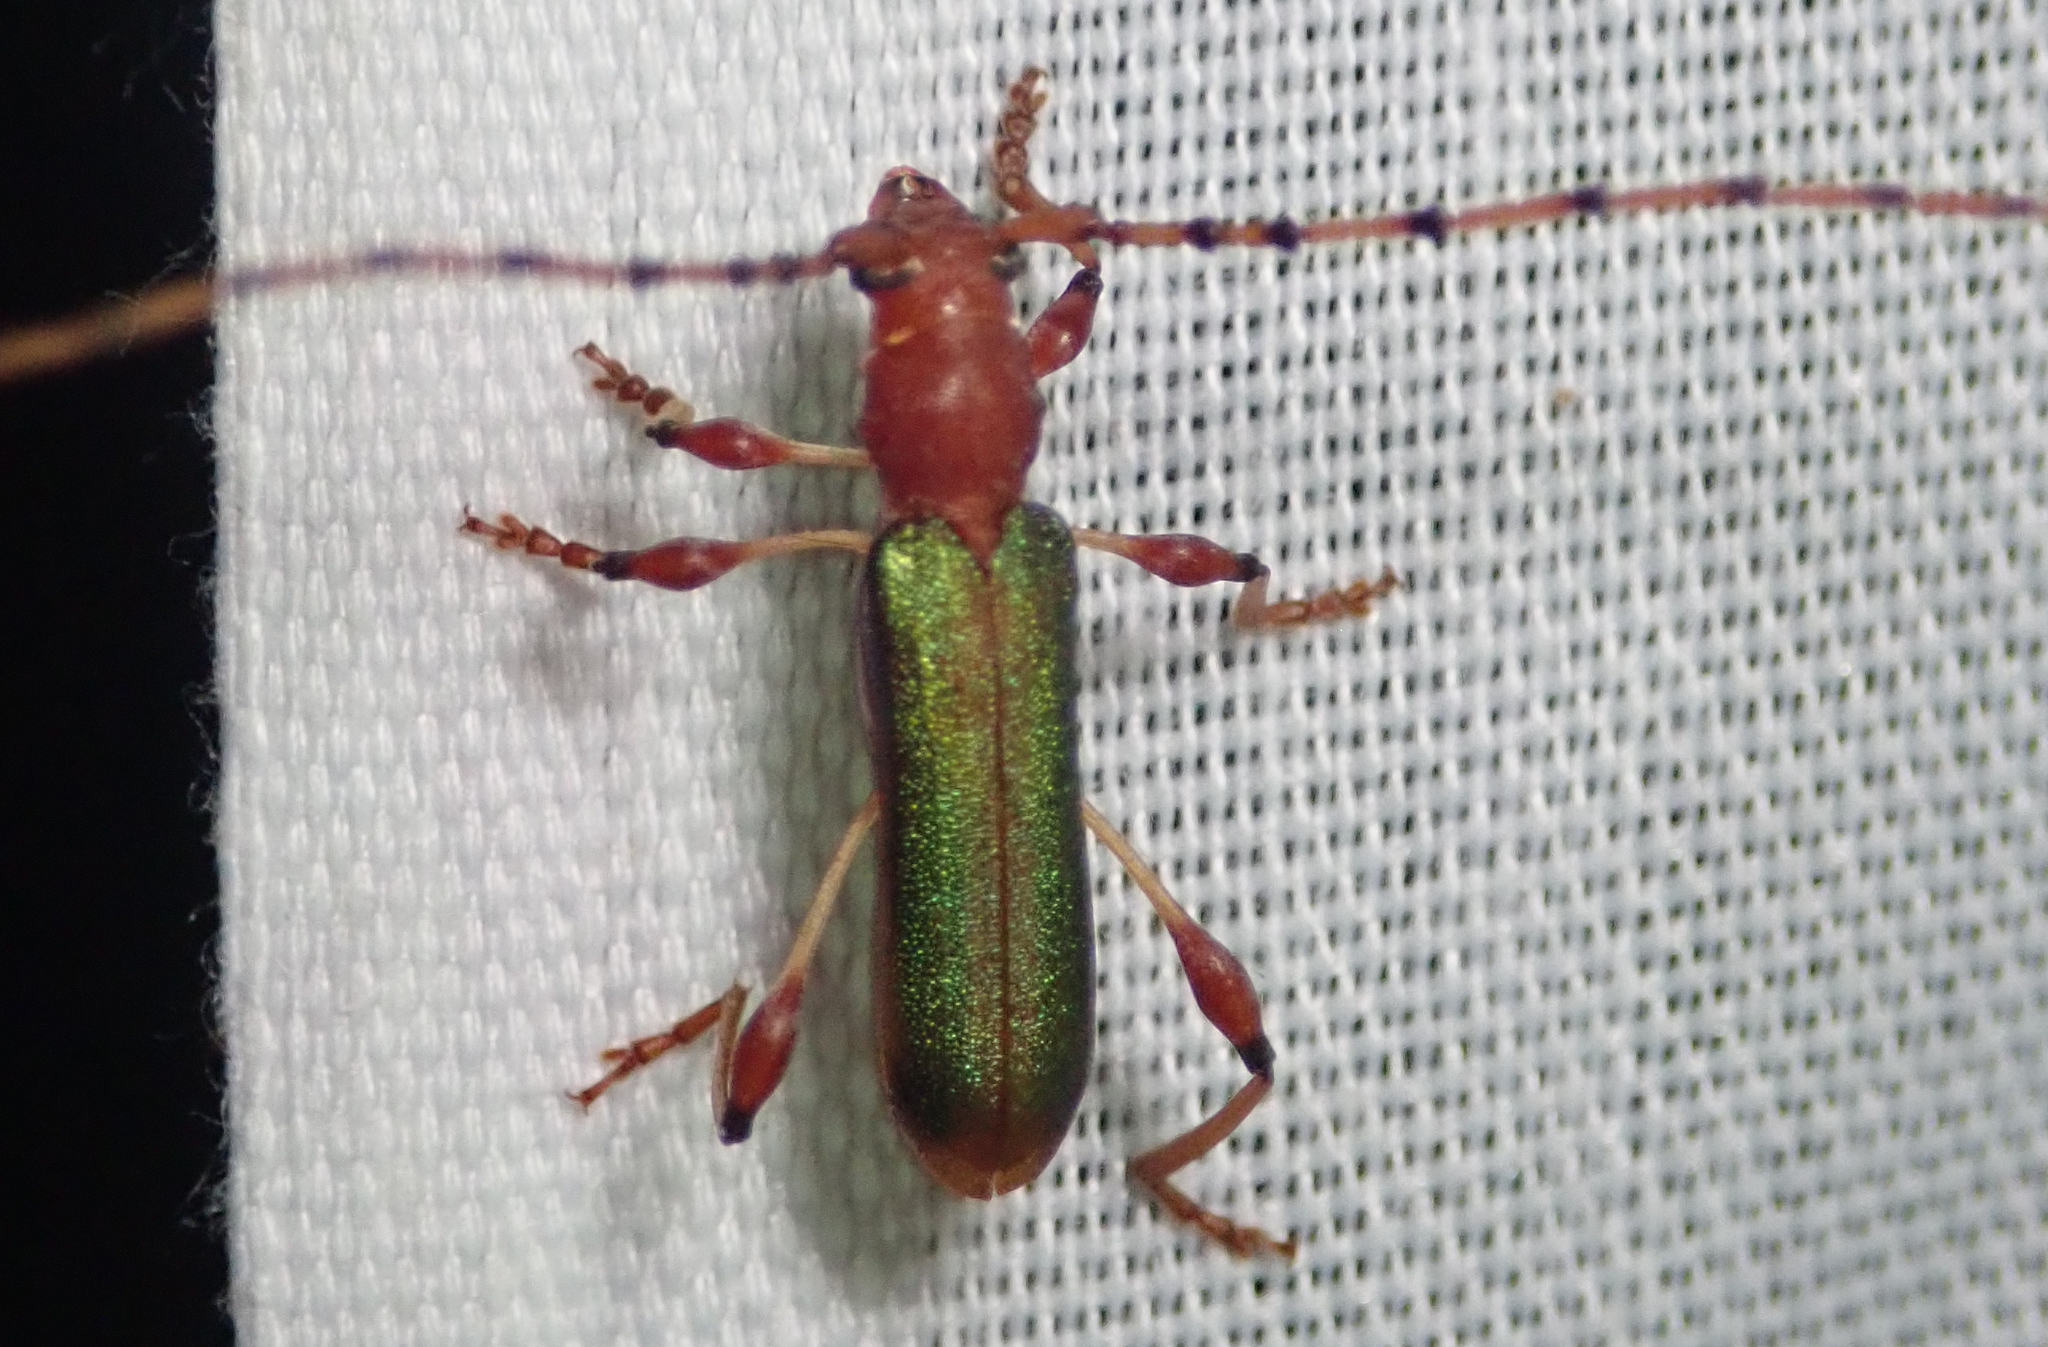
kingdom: Animalia
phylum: Arthropoda
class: Insecta
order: Coleoptera
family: Cerambycidae
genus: Cordylomera
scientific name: Cordylomera annulicornis
